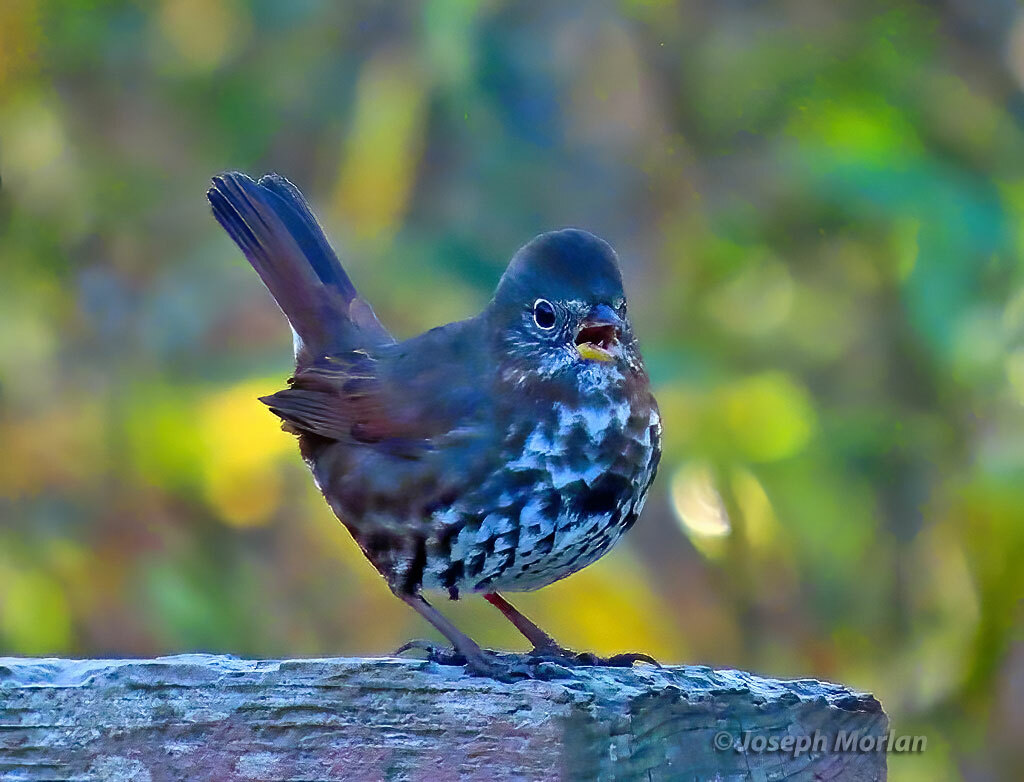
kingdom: Animalia
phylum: Chordata
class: Aves
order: Passeriformes
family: Passerellidae
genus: Passerella
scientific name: Passerella iliaca
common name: Fox sparrow
